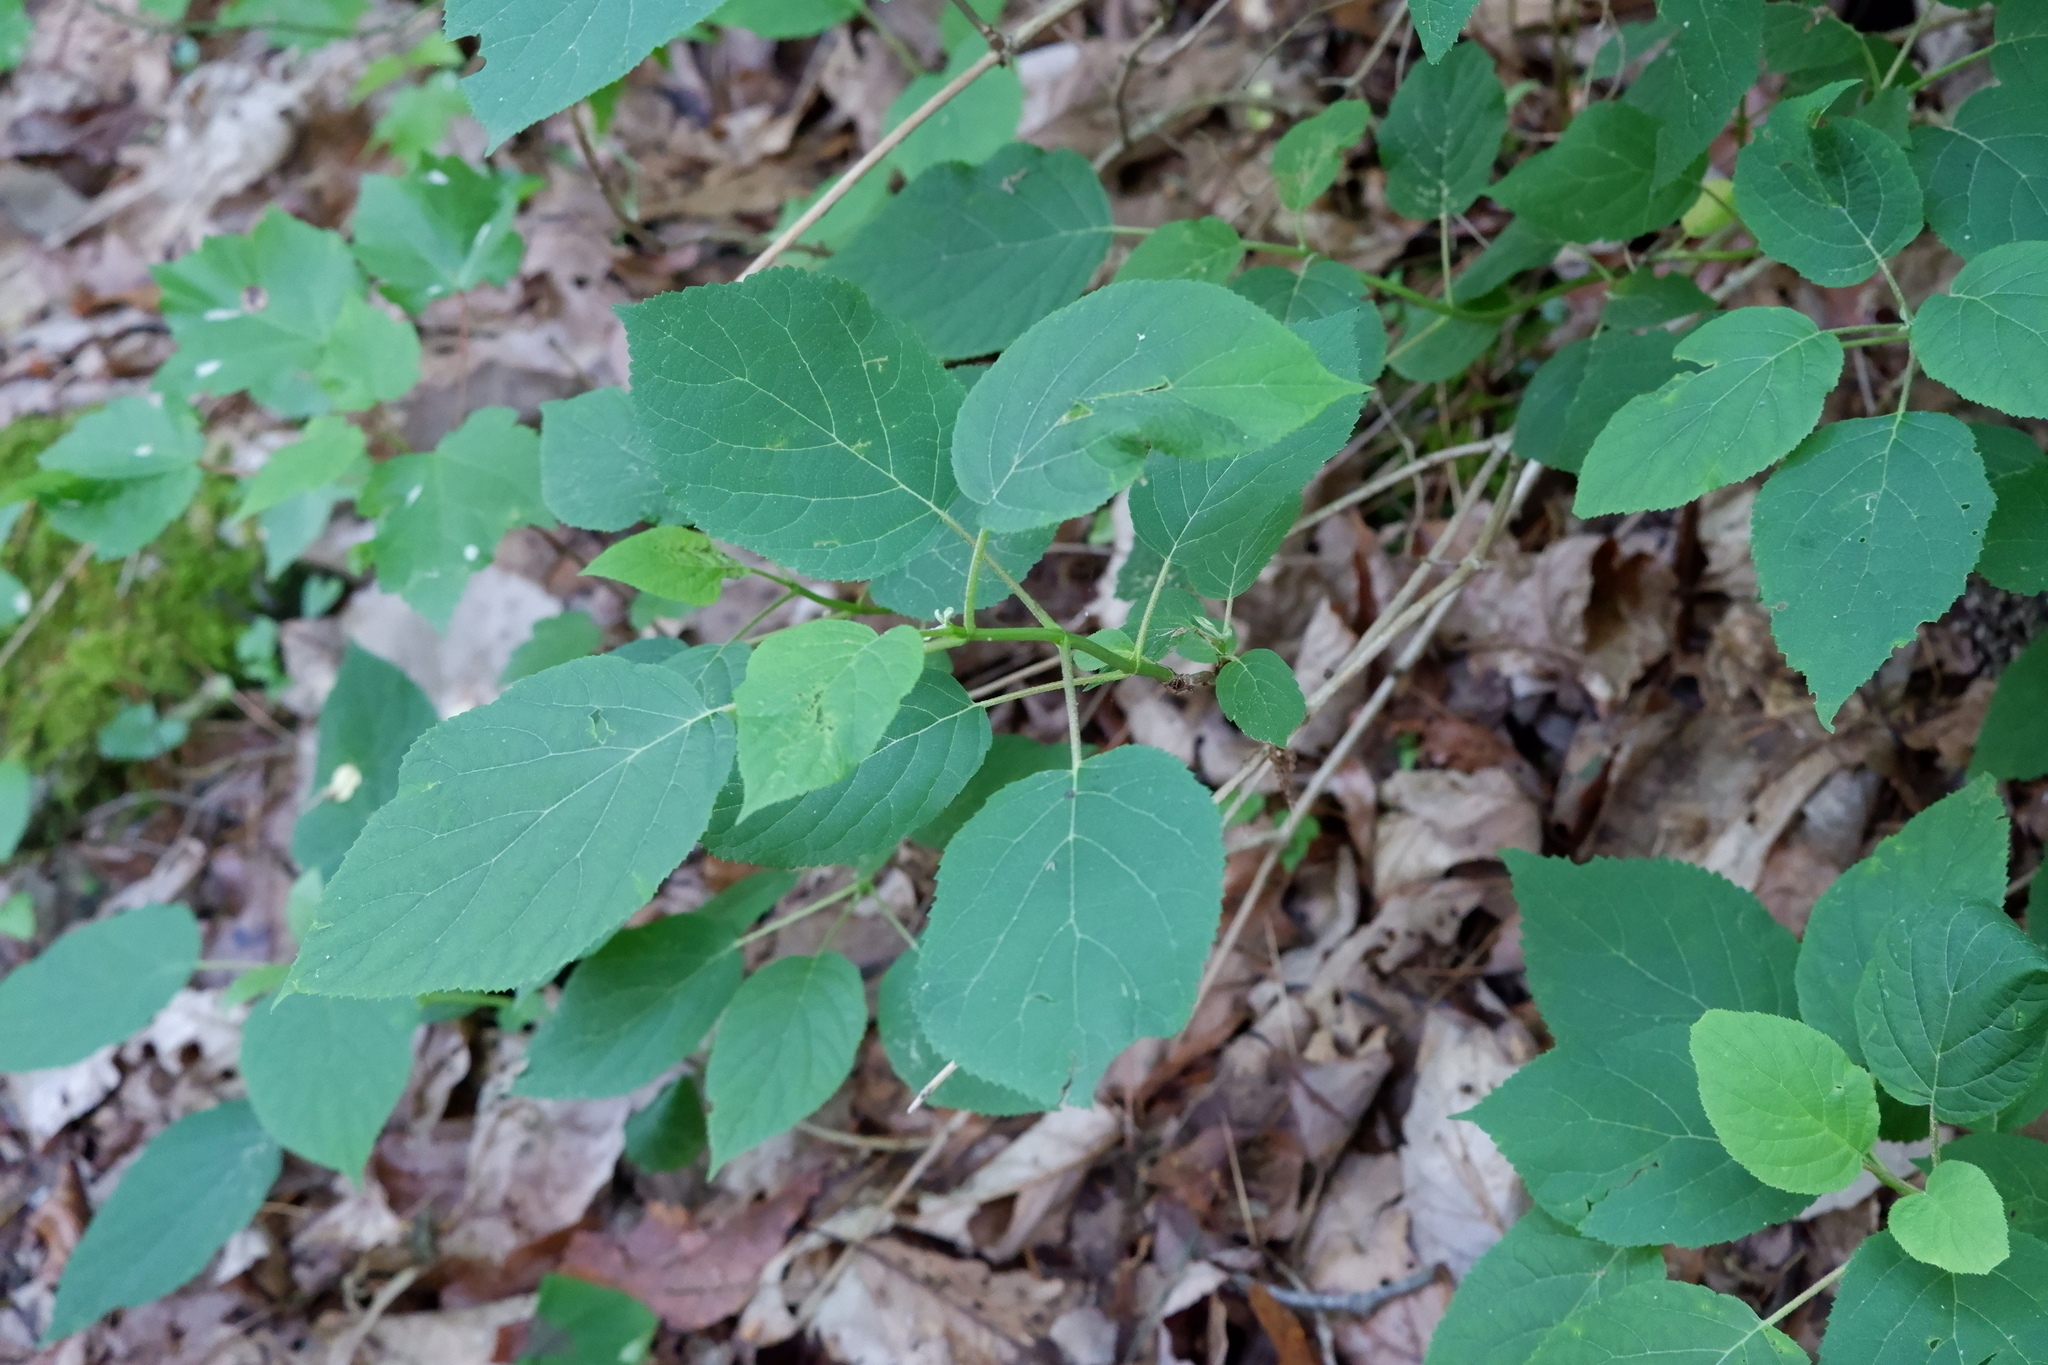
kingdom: Plantae
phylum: Tracheophyta
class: Magnoliopsida
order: Cornales
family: Hydrangeaceae
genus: Hydrangea
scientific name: Hydrangea arborescens
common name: Sevenbark
